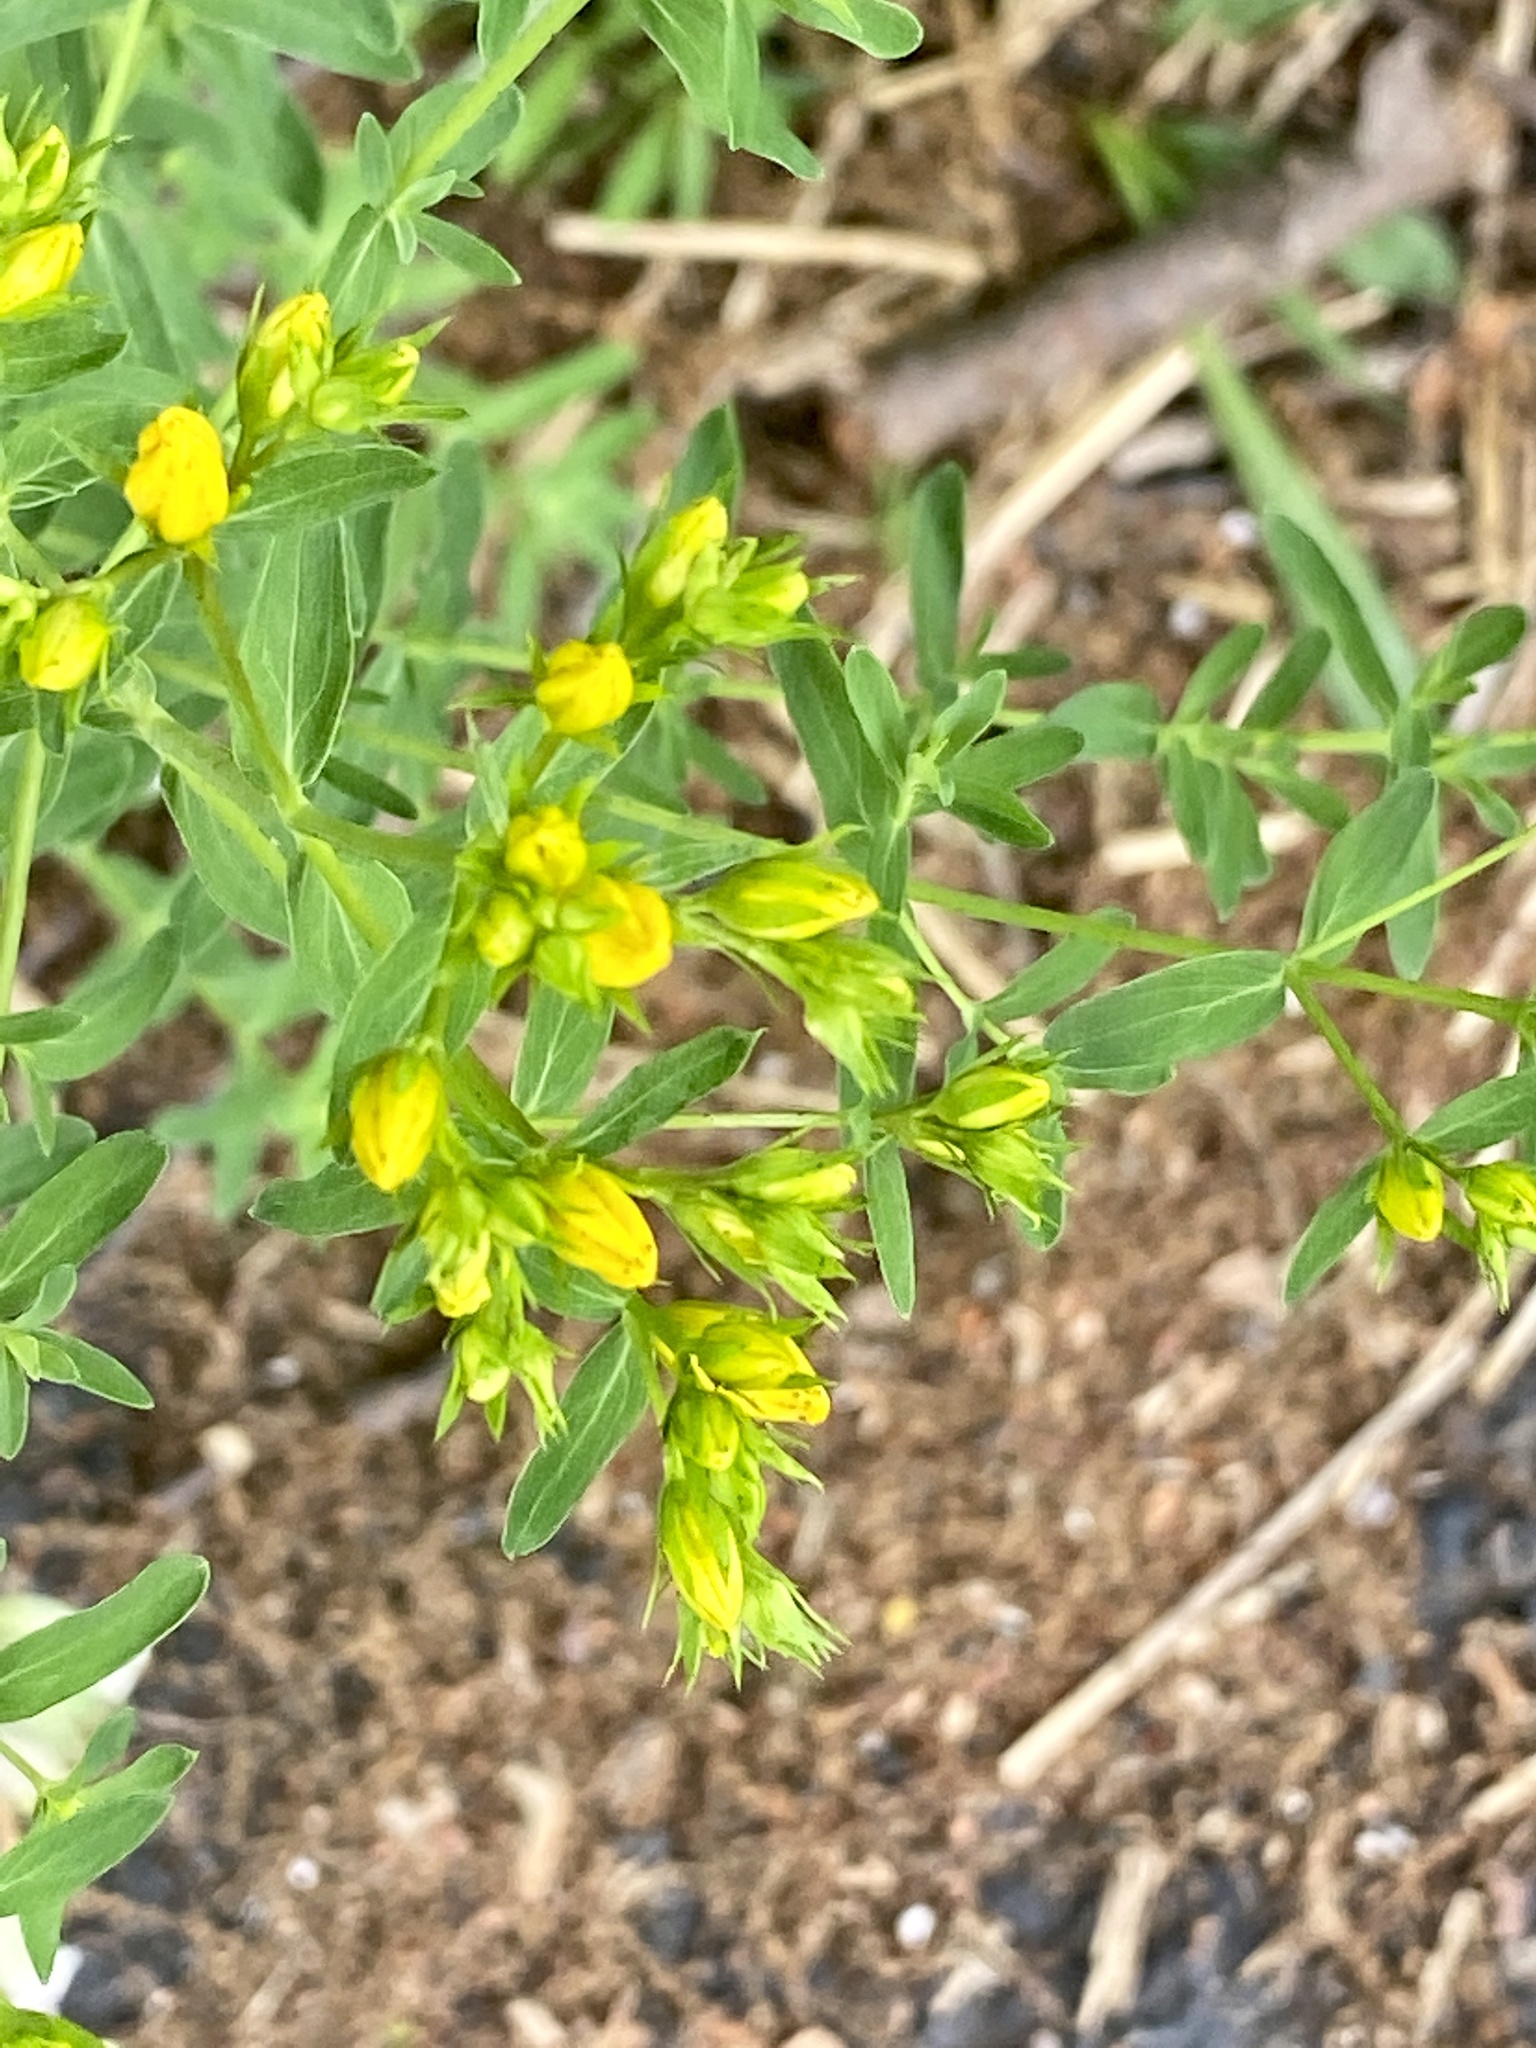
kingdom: Plantae
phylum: Tracheophyta
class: Magnoliopsida
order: Malpighiales
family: Hypericaceae
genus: Hypericum
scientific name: Hypericum perforatum
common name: Common st. johnswort
